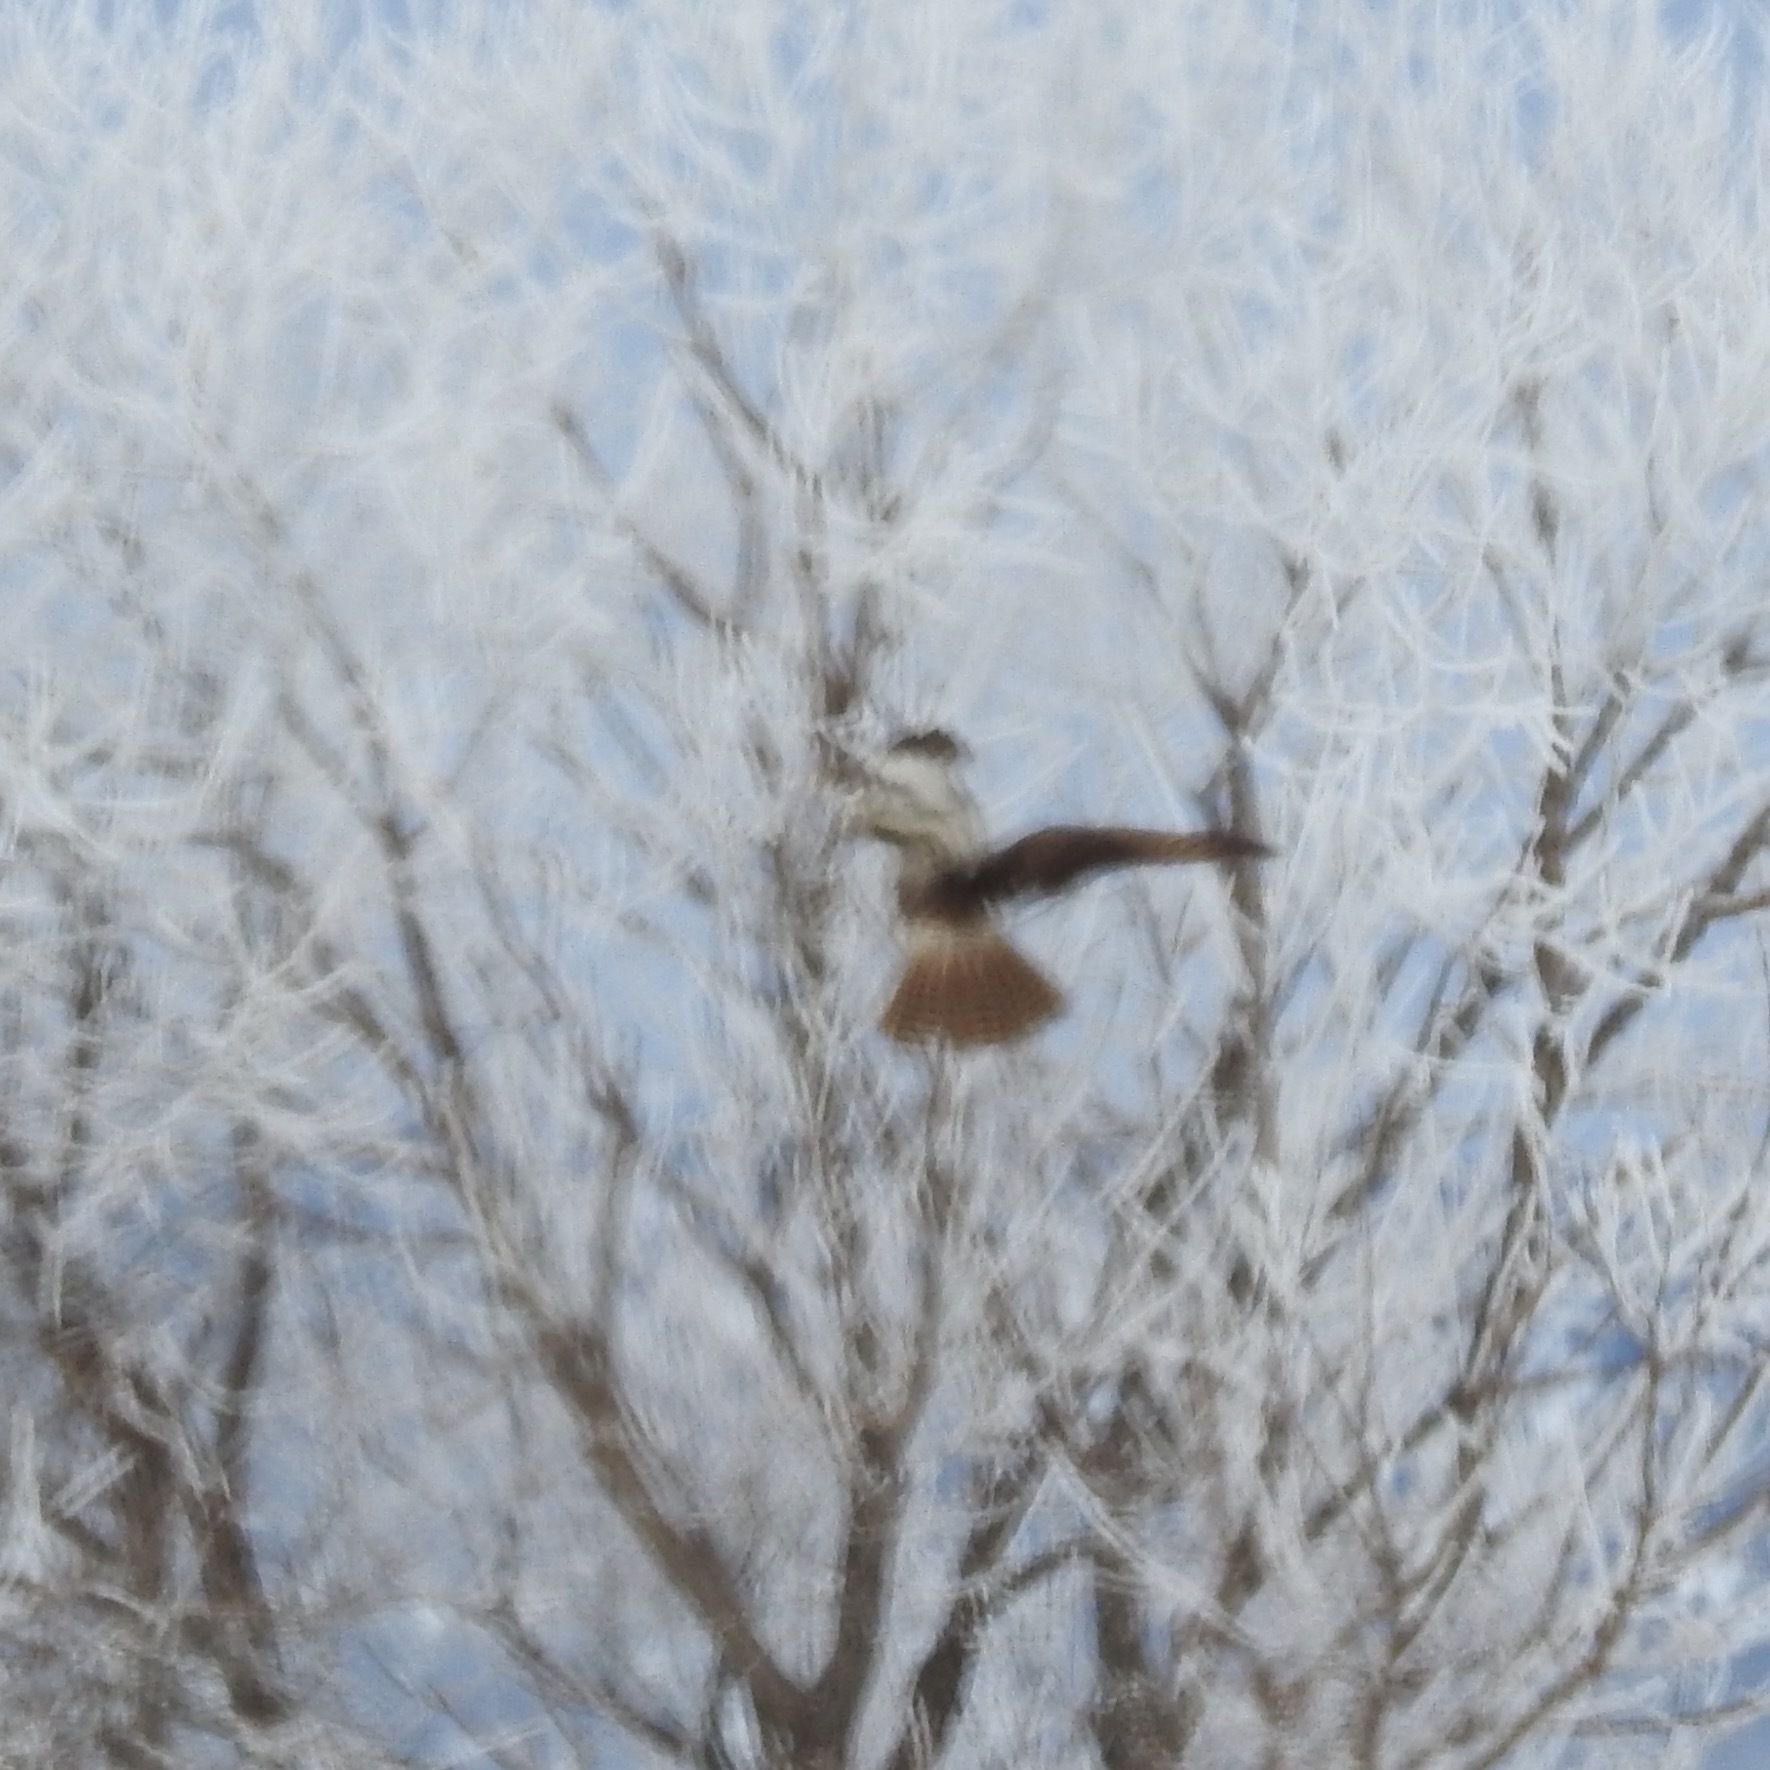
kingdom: Animalia
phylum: Chordata
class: Aves
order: Accipitriformes
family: Accipitridae
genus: Buteo
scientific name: Buteo jamaicensis
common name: Red-tailed hawk
